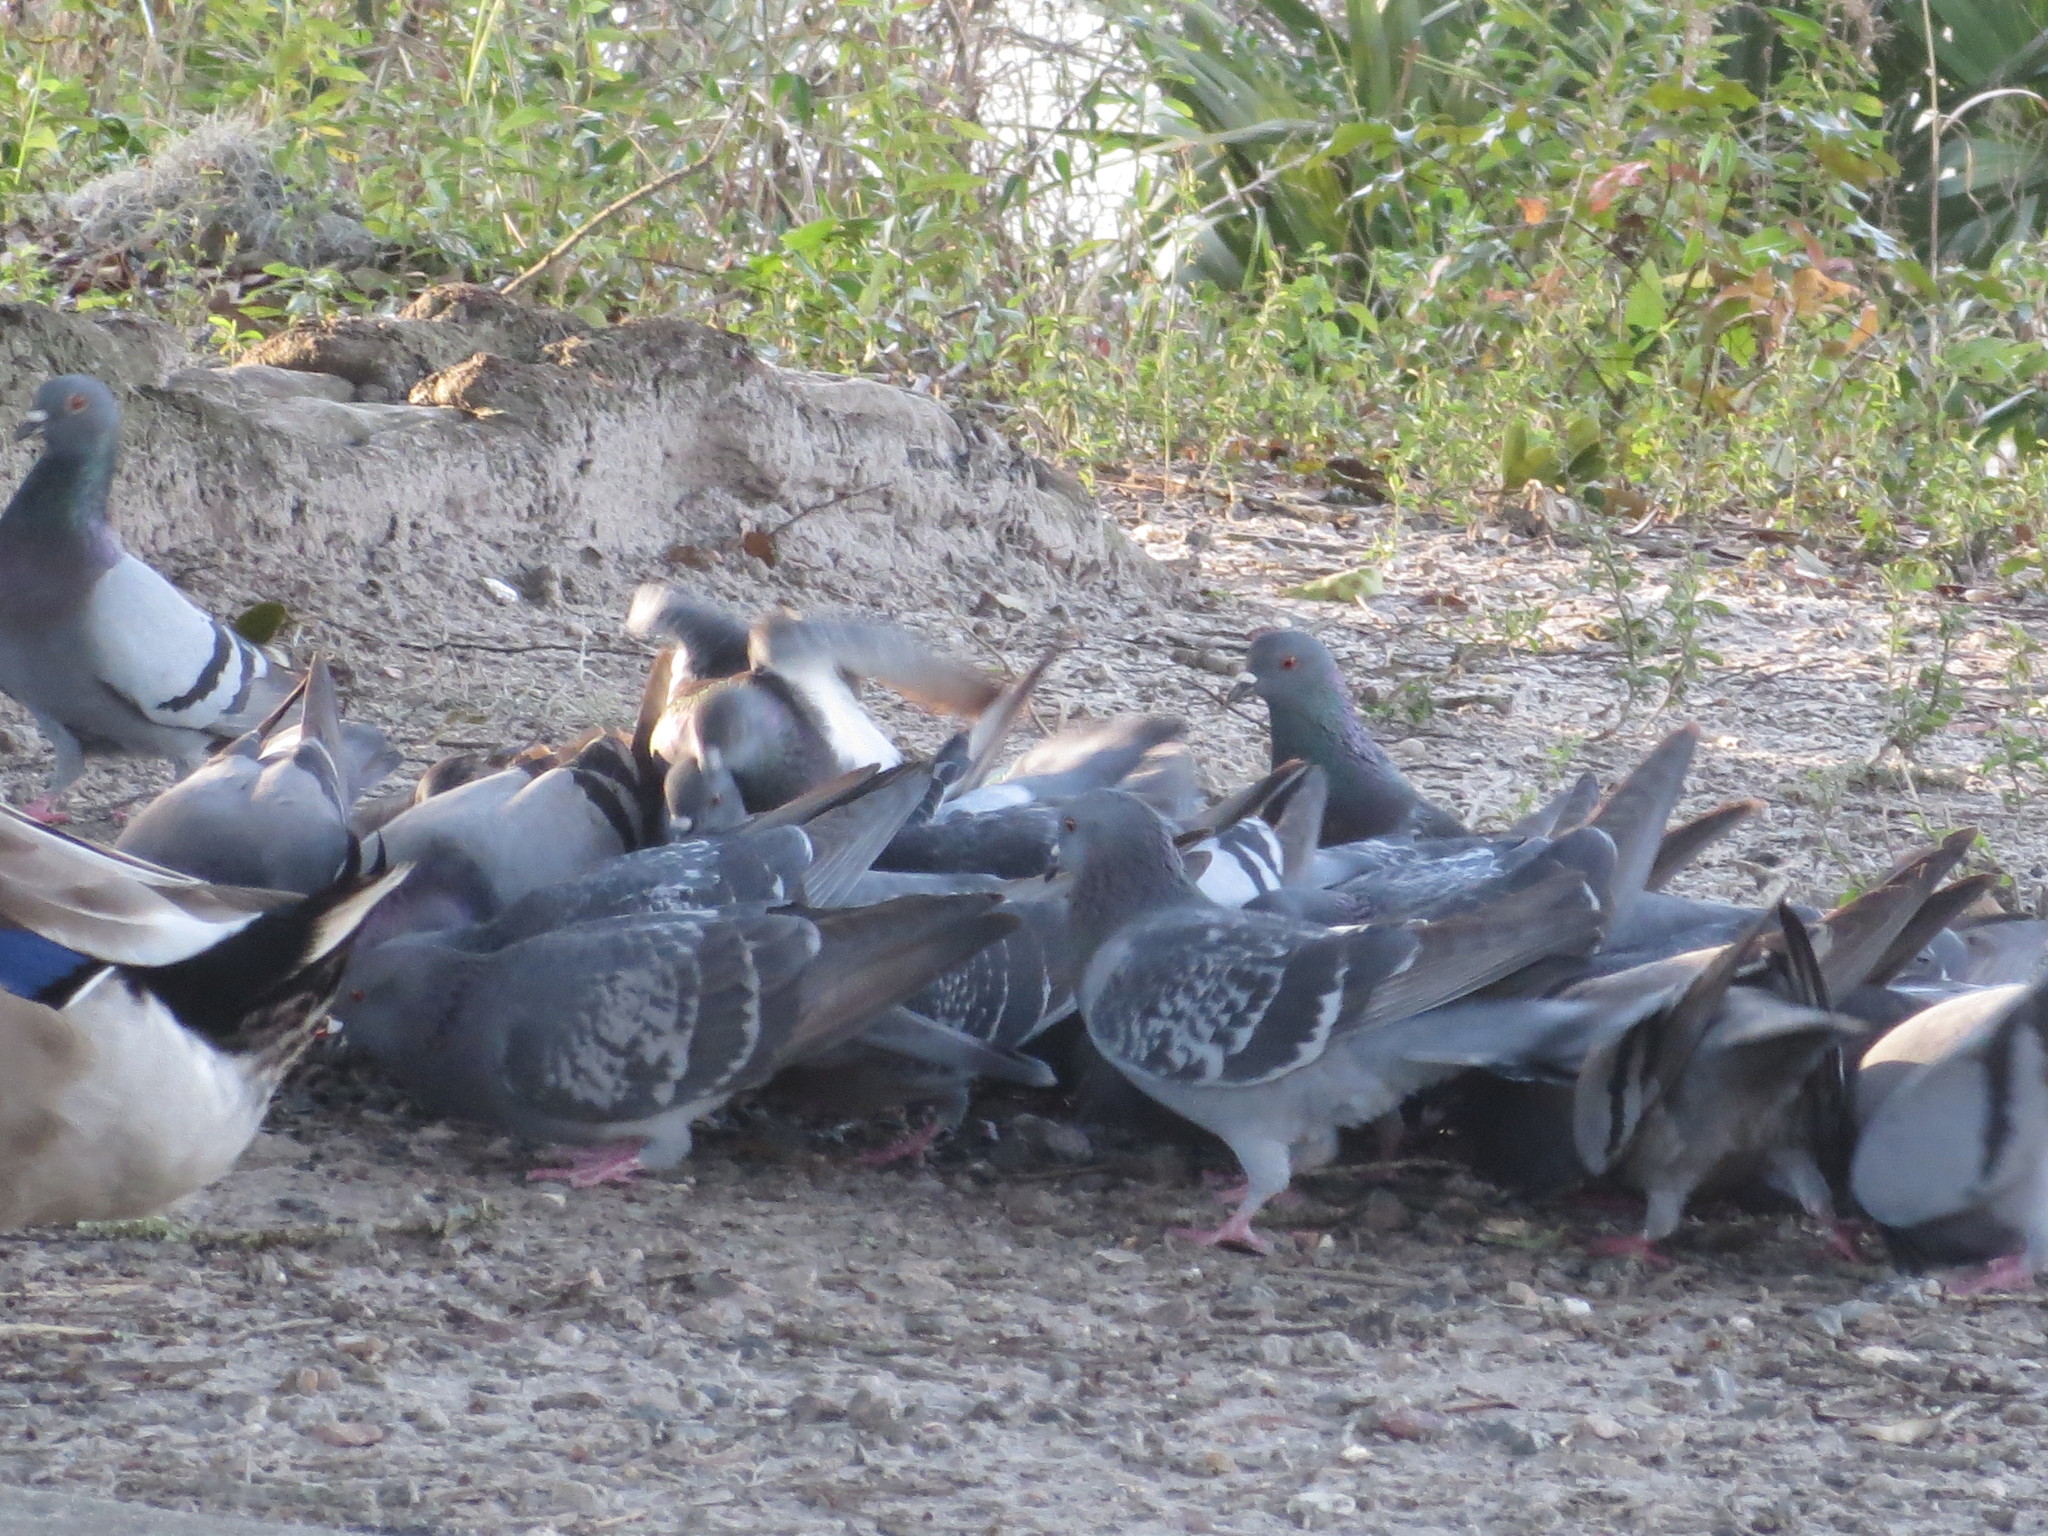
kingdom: Animalia
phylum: Chordata
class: Aves
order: Columbiformes
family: Columbidae
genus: Columba
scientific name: Columba livia
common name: Rock pigeon
